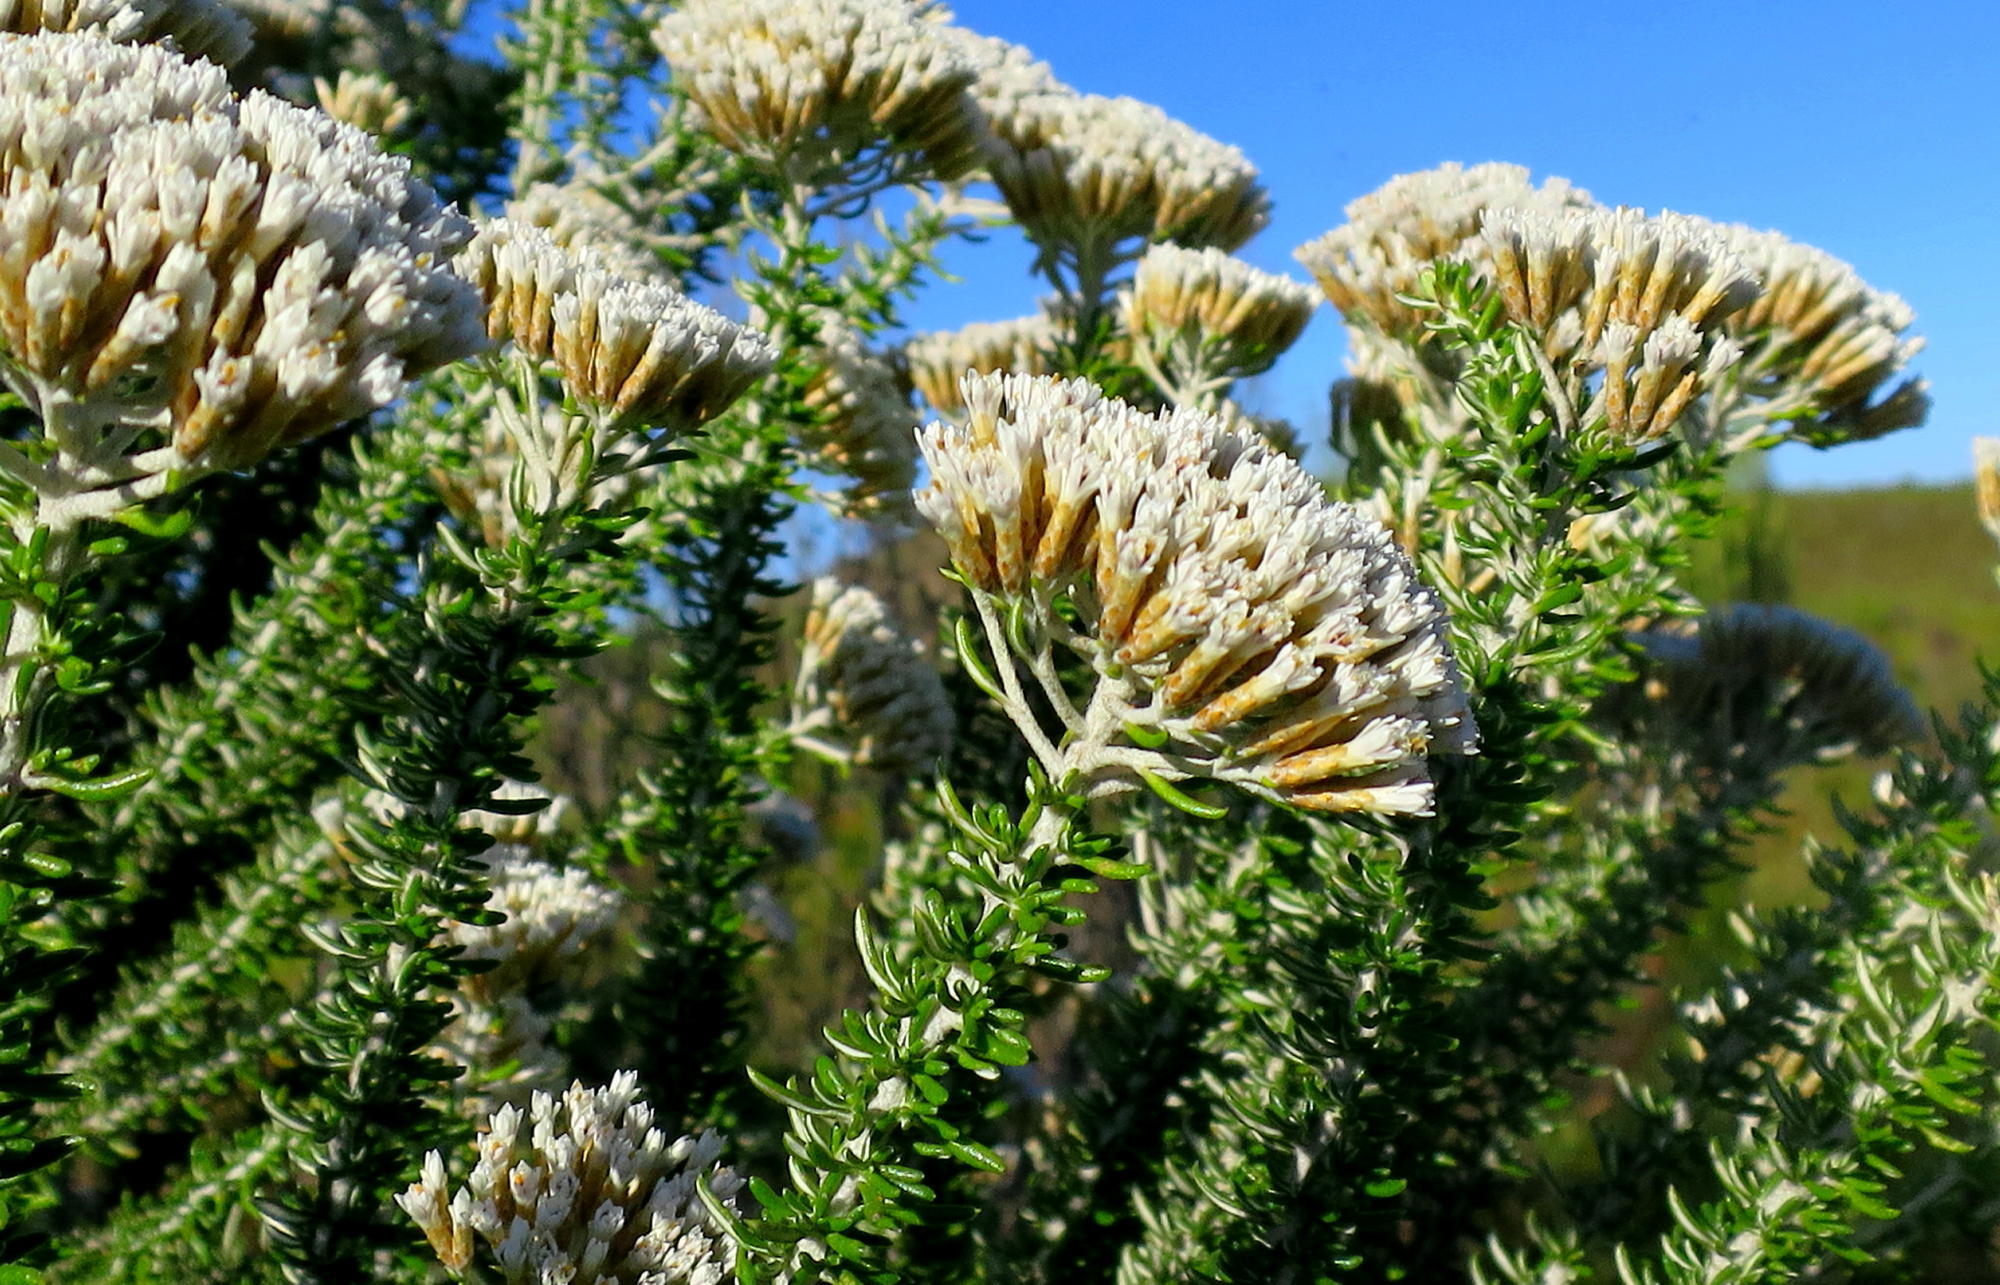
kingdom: Plantae
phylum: Tracheophyta
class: Magnoliopsida
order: Asterales
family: Asteraceae
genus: Metalasia
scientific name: Metalasia muricata
